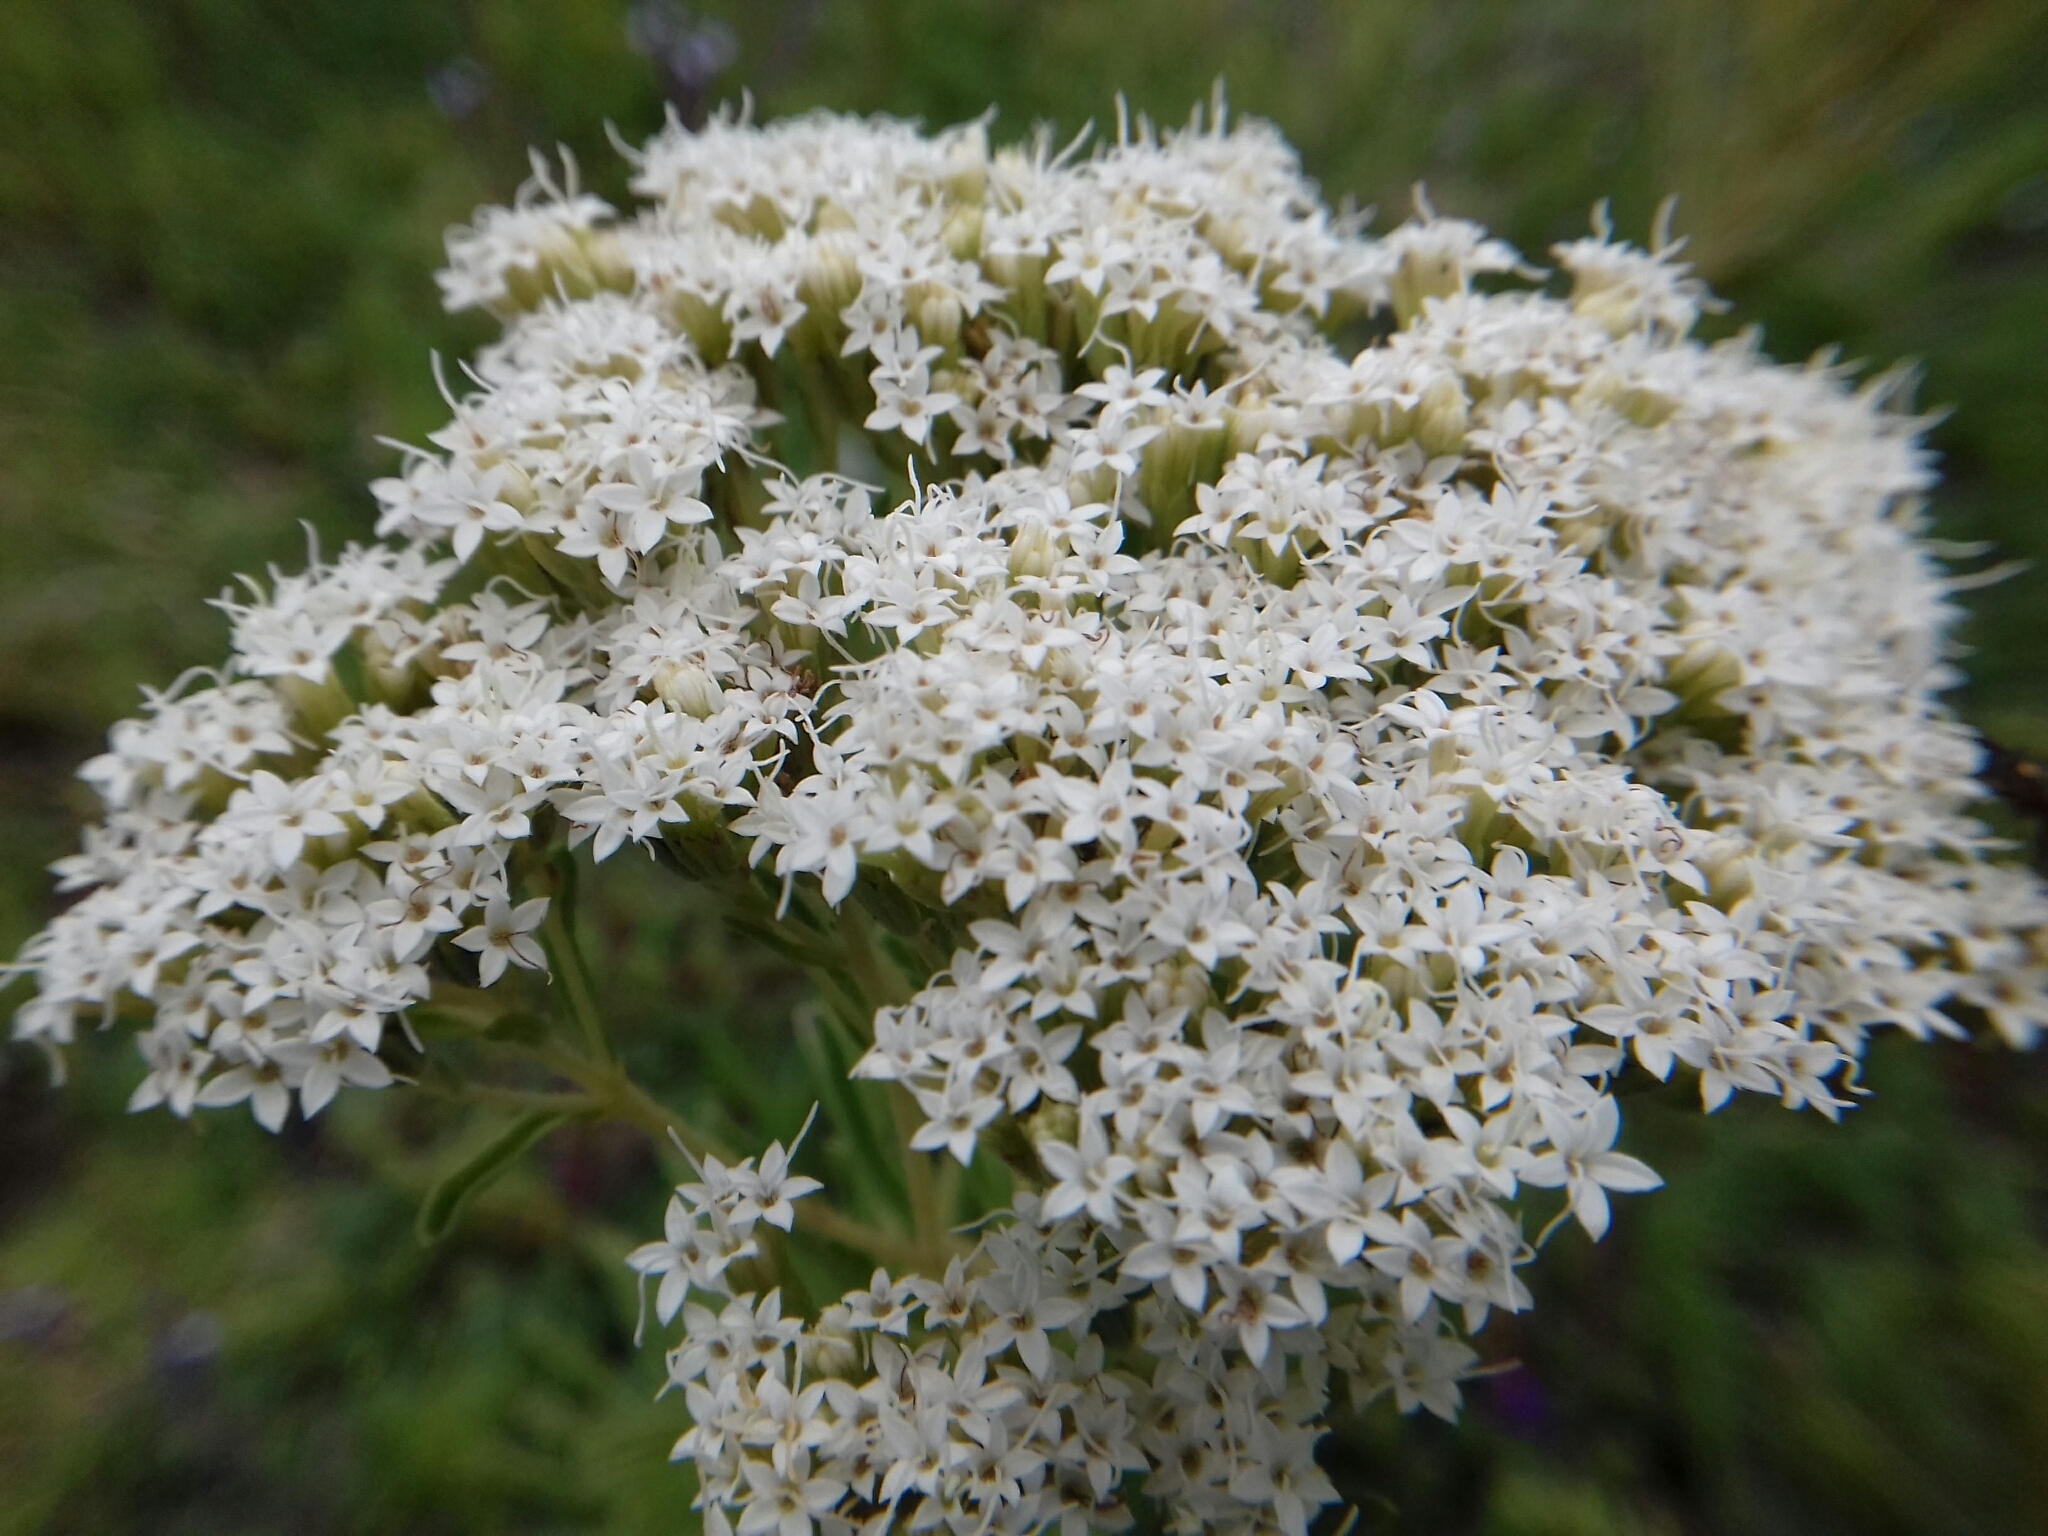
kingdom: Plantae
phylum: Tracheophyta
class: Magnoliopsida
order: Asterales
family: Asteraceae
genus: Stevia
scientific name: Stevia serrata
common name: Sawtooth candyleaf
